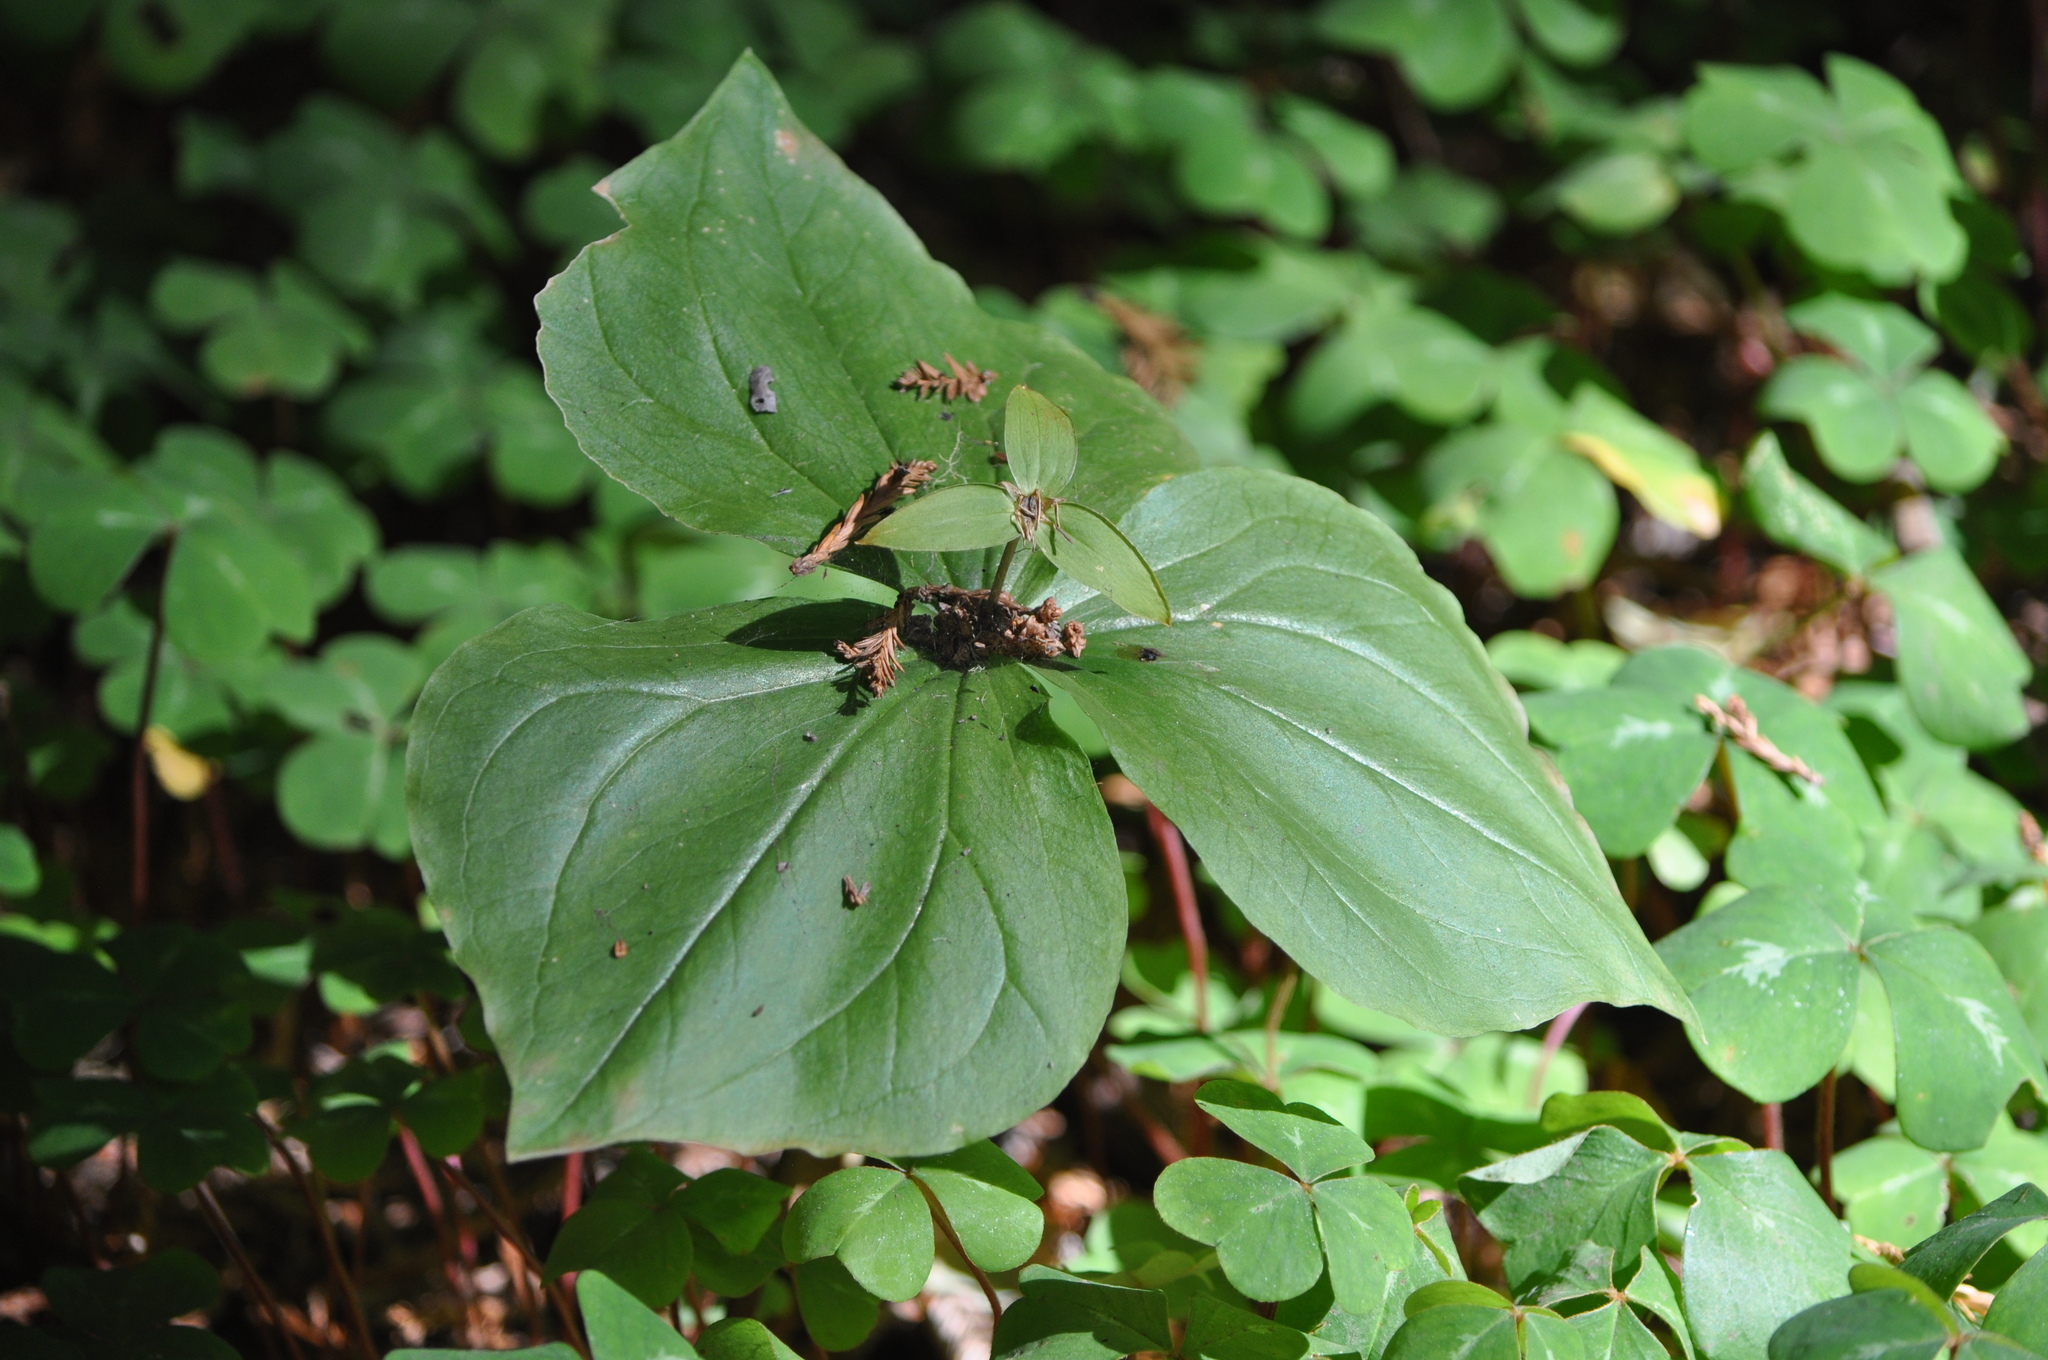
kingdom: Plantae
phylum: Tracheophyta
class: Liliopsida
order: Liliales
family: Melanthiaceae
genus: Trillium
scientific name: Trillium ovatum
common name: Pacific trillium
